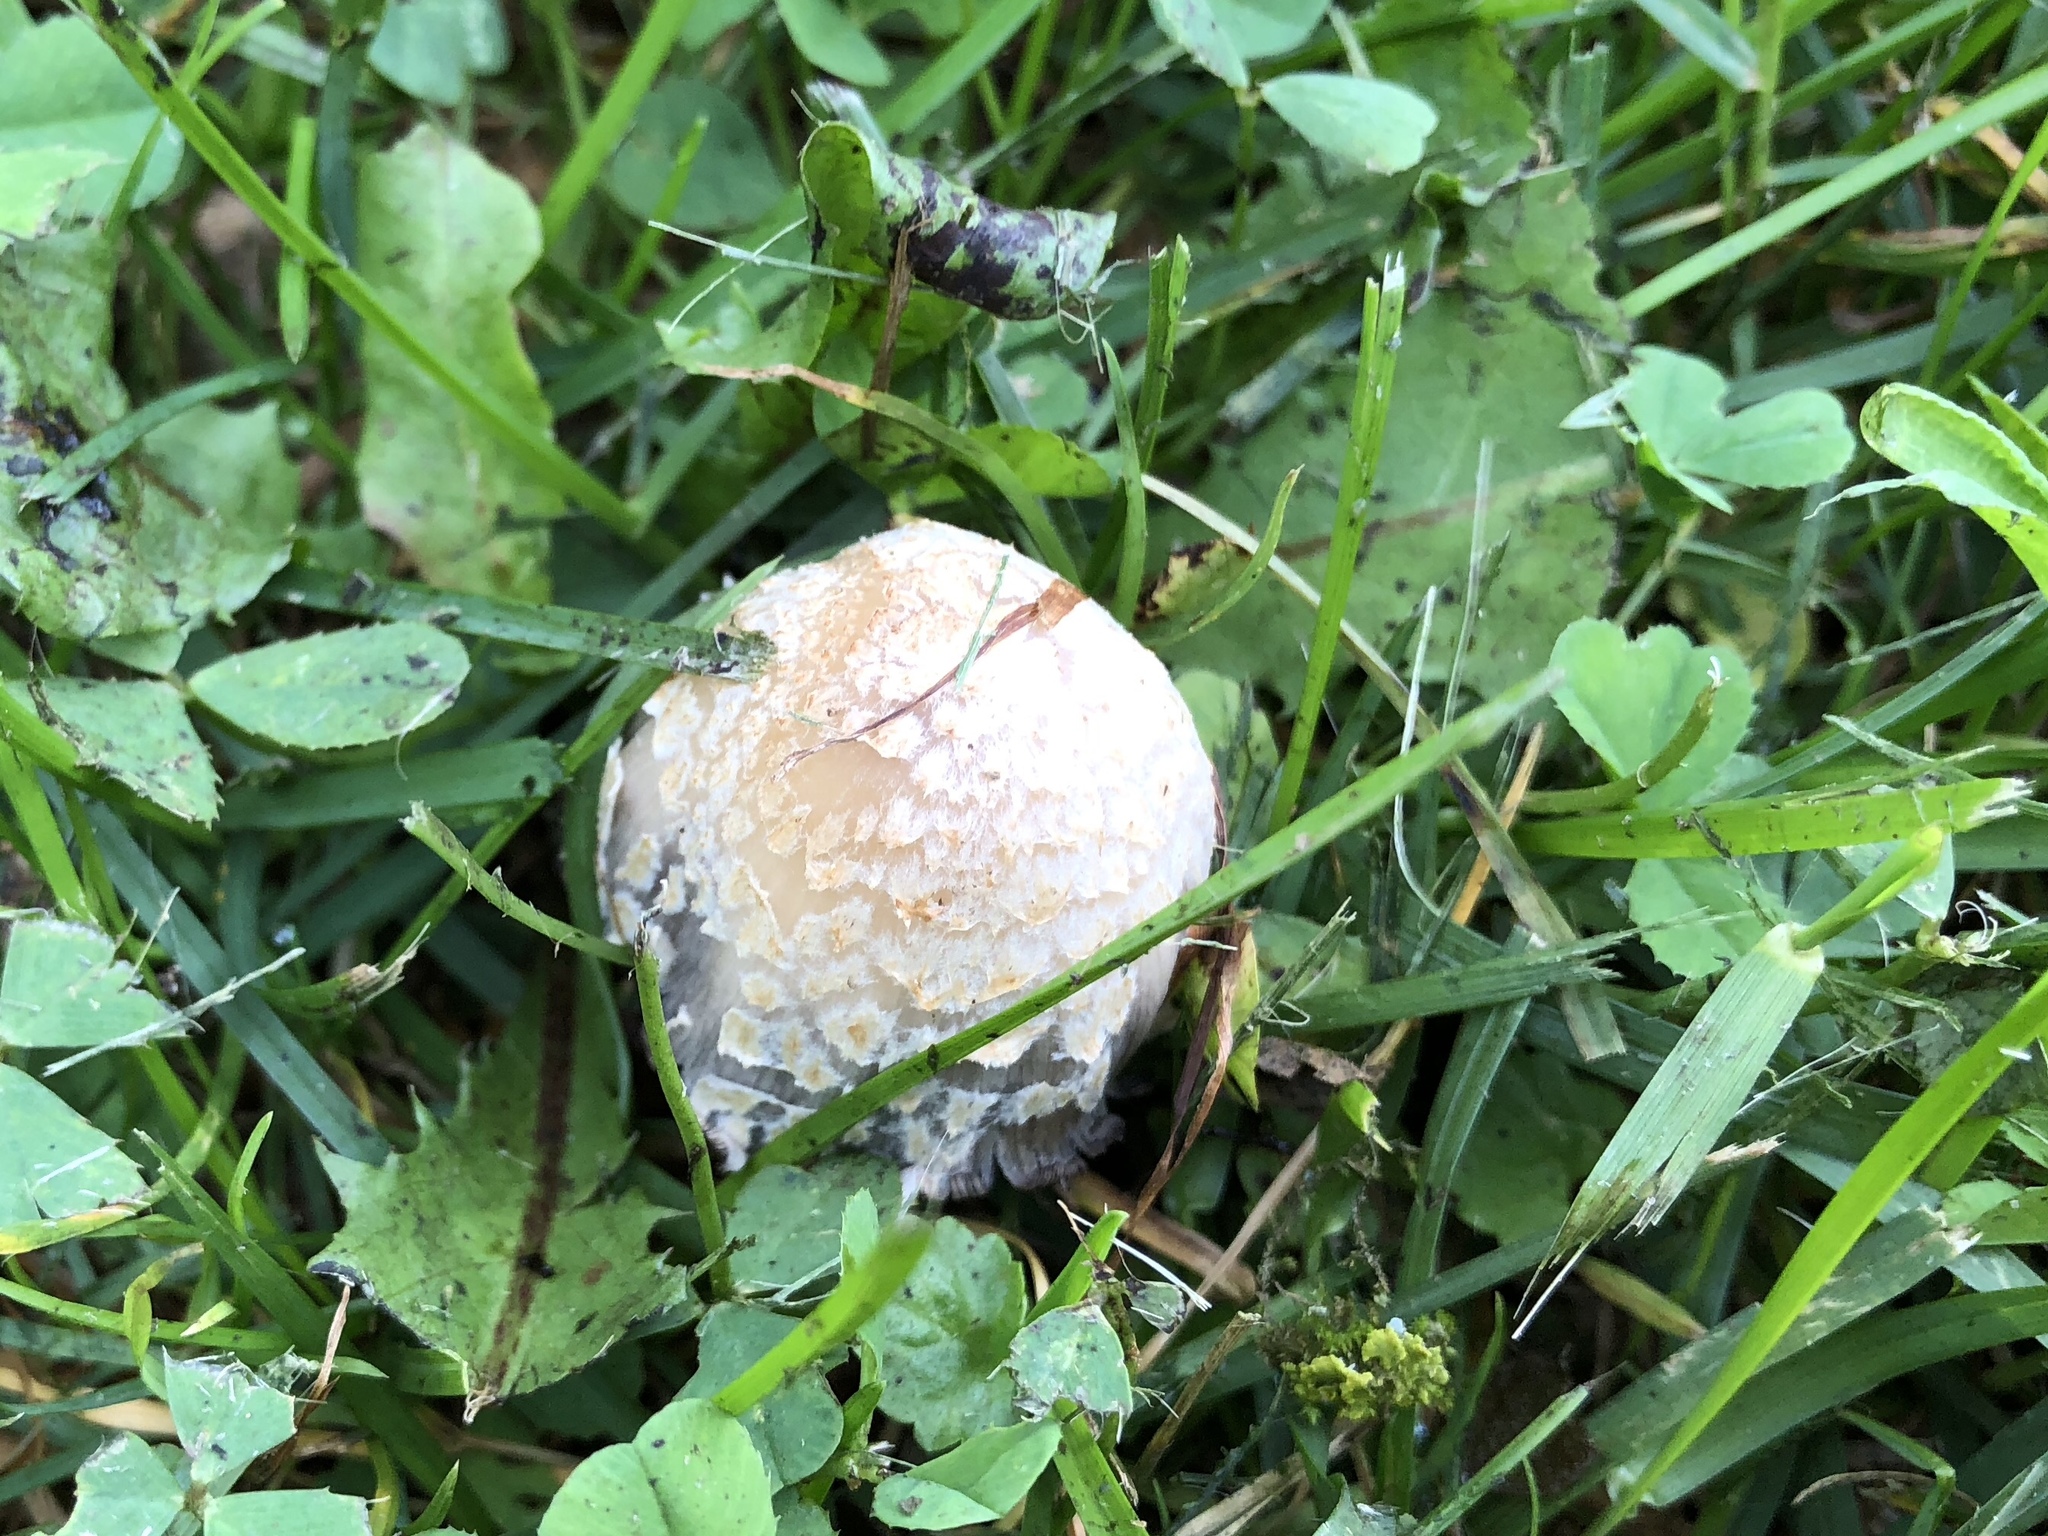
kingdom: Fungi
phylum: Basidiomycota
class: Agaricomycetes
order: Agaricales
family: Agaricaceae
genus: Coprinus
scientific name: Coprinus comatus
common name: Lawyer's wig
